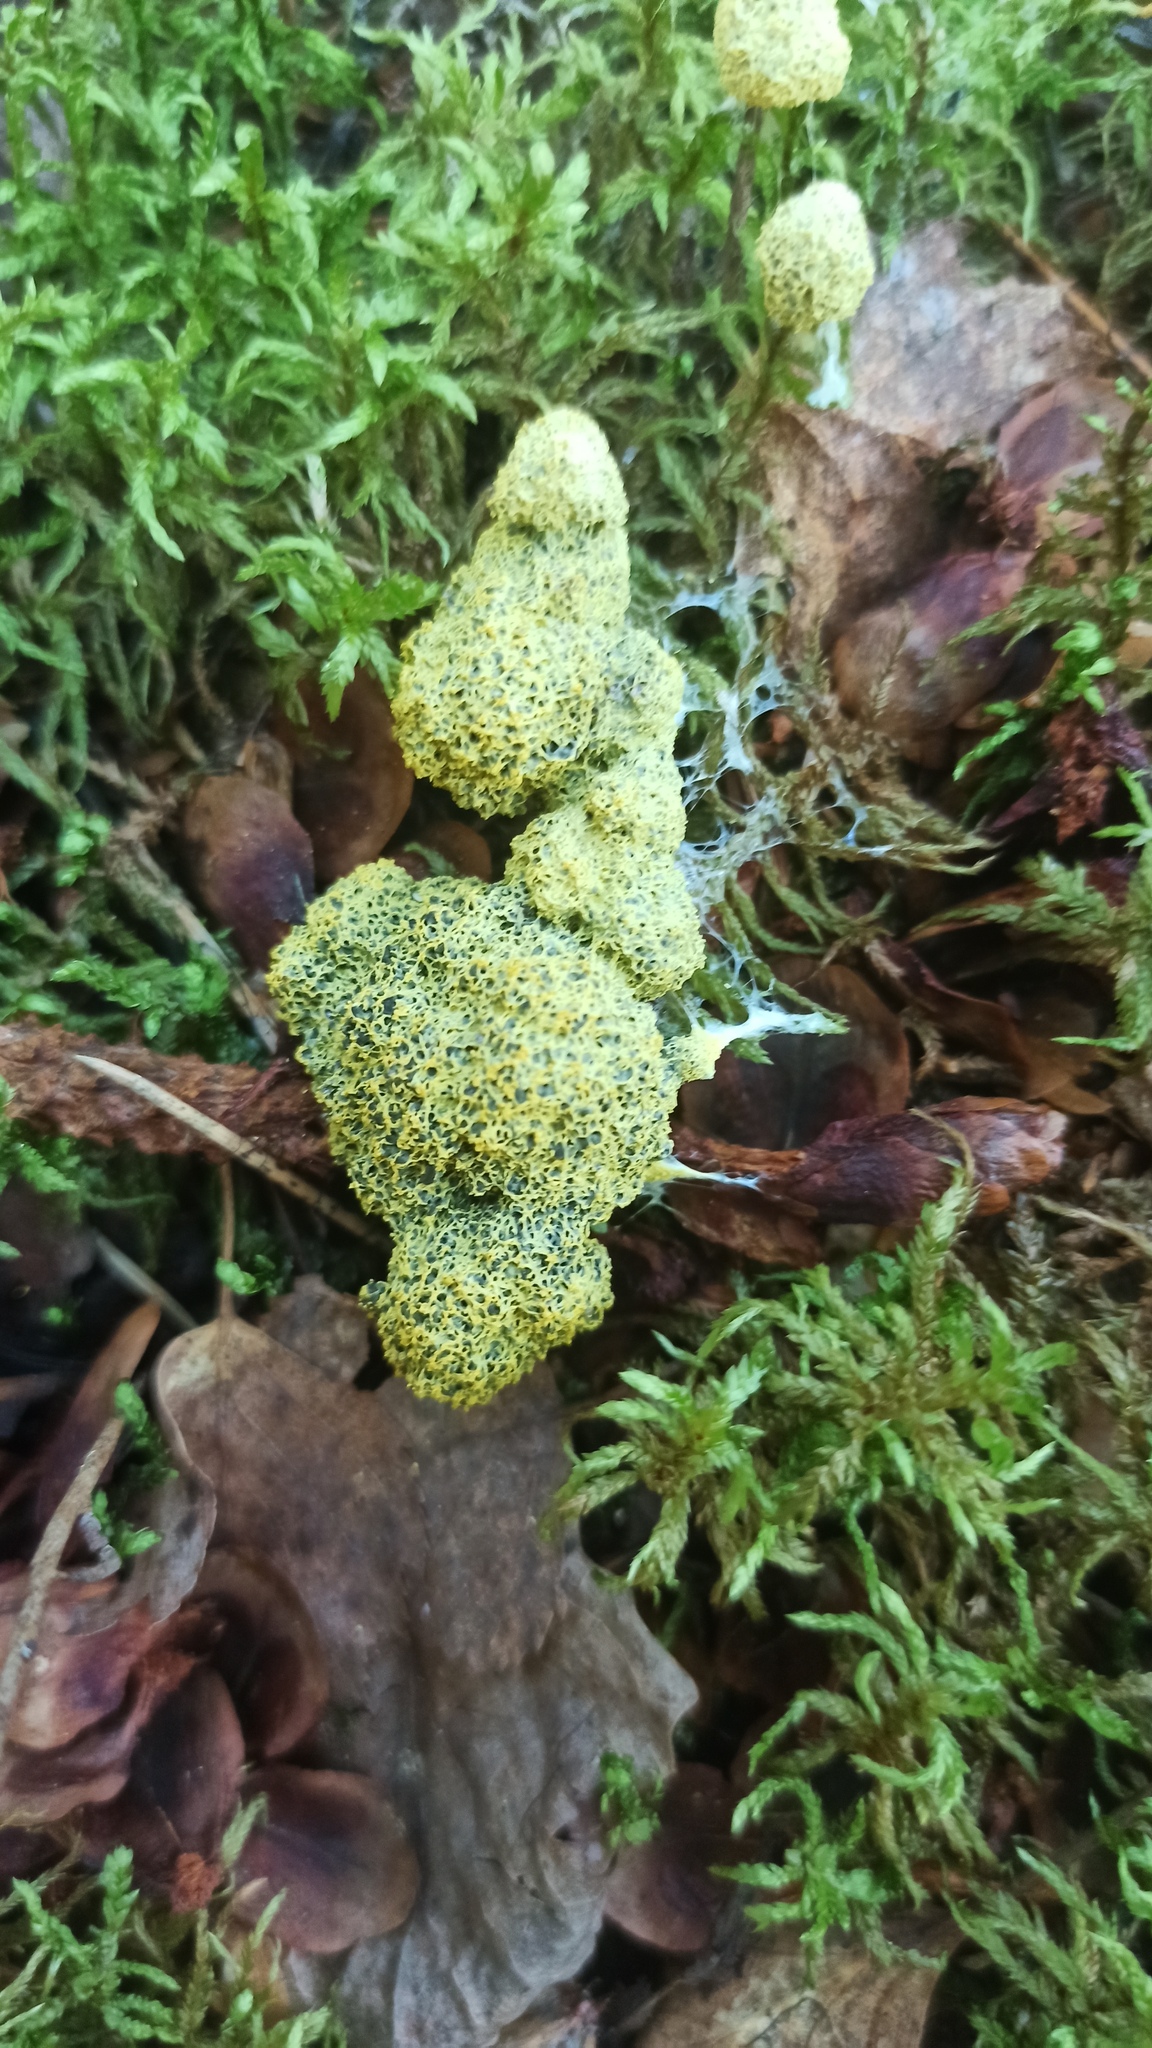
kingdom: Protozoa
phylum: Mycetozoa
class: Myxomycetes
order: Physarales
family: Physaraceae
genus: Fuligo
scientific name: Fuligo septica
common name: Dog vomit slime mold
